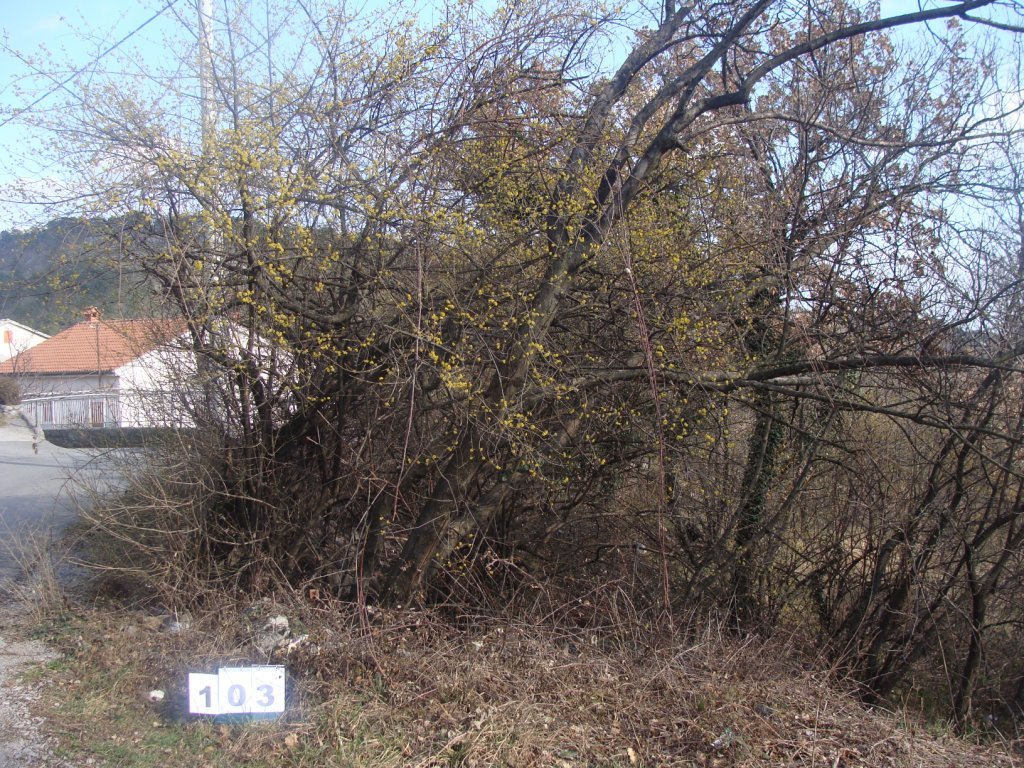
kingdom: Plantae
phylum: Tracheophyta
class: Magnoliopsida
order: Cornales
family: Cornaceae
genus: Cornus
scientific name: Cornus mas
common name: Cornelian-cherry
